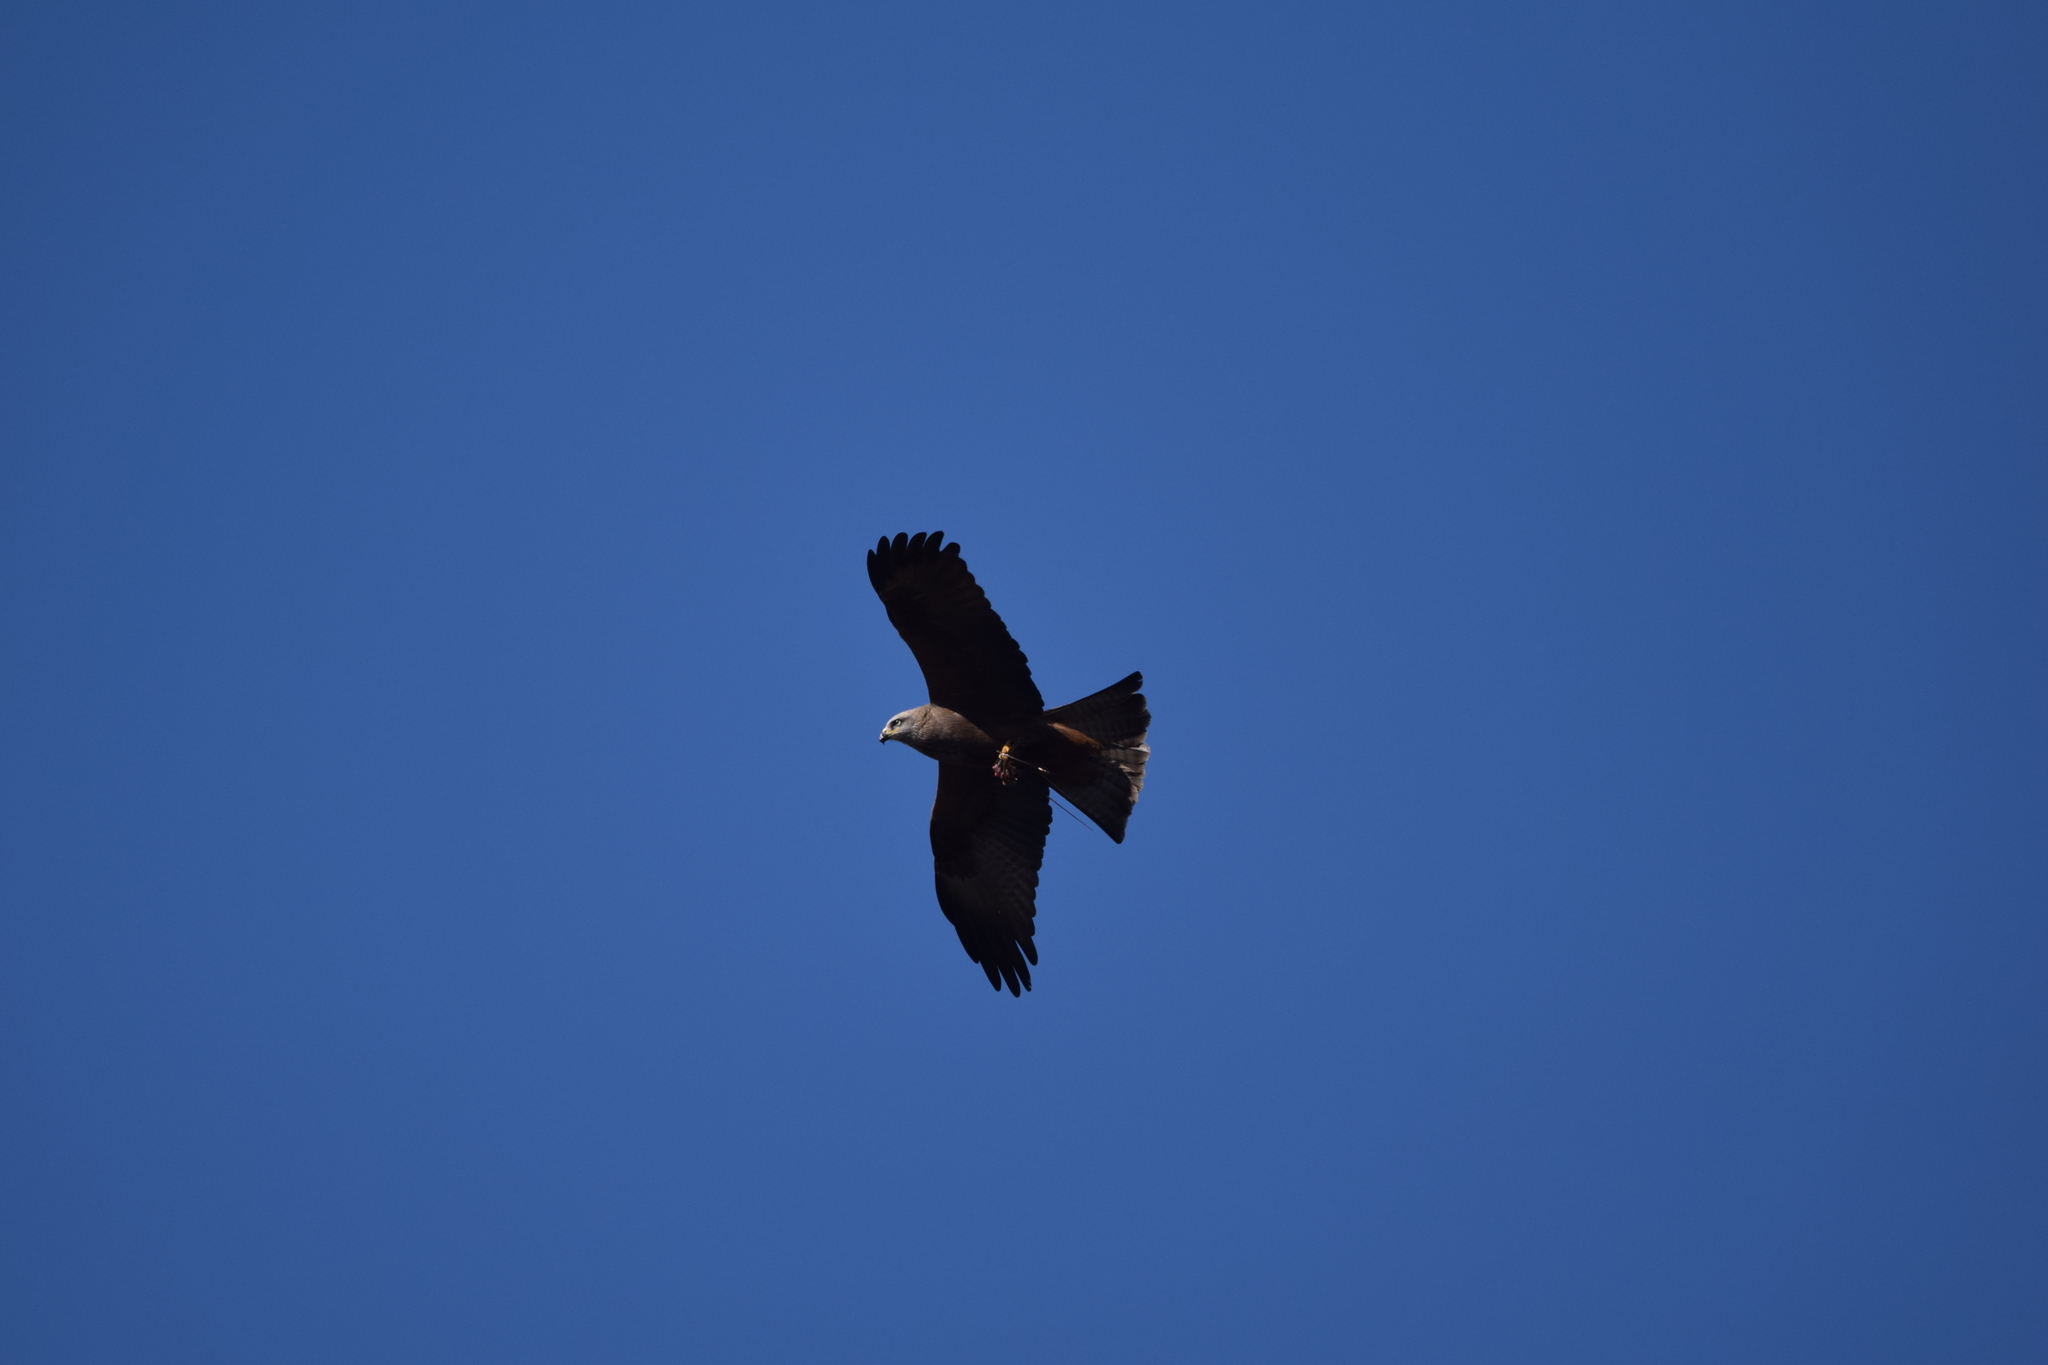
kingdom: Animalia
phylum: Chordata
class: Aves
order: Accipitriformes
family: Accipitridae
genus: Milvus
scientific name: Milvus migrans
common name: Black kite
